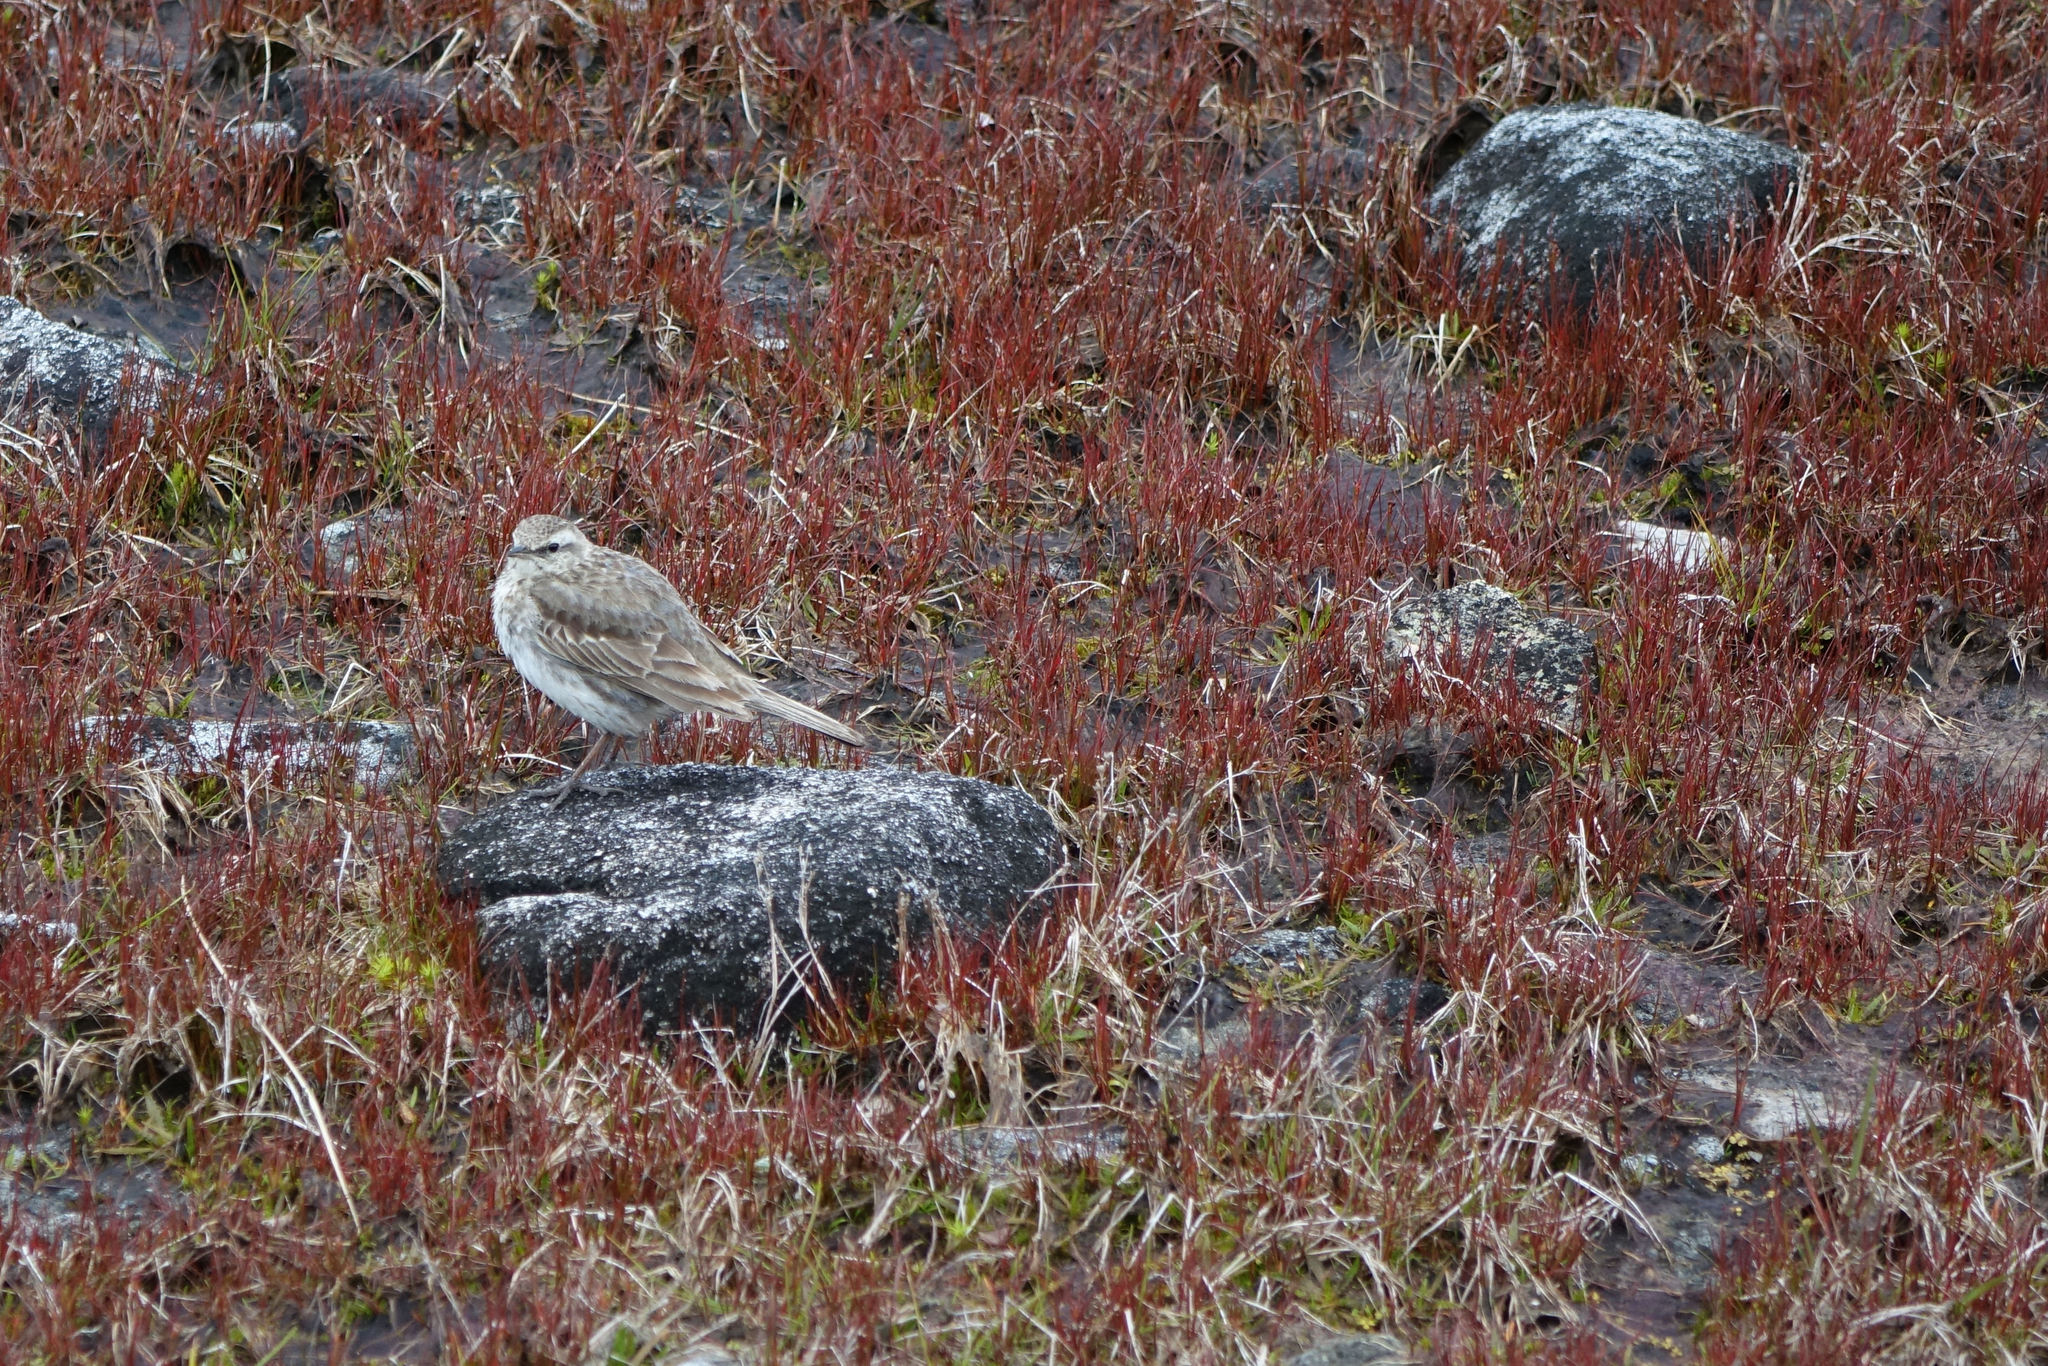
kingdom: Animalia
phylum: Chordata
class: Aves
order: Passeriformes
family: Motacillidae
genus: Anthus
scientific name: Anthus novaeseelandiae
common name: New zealand pipit
